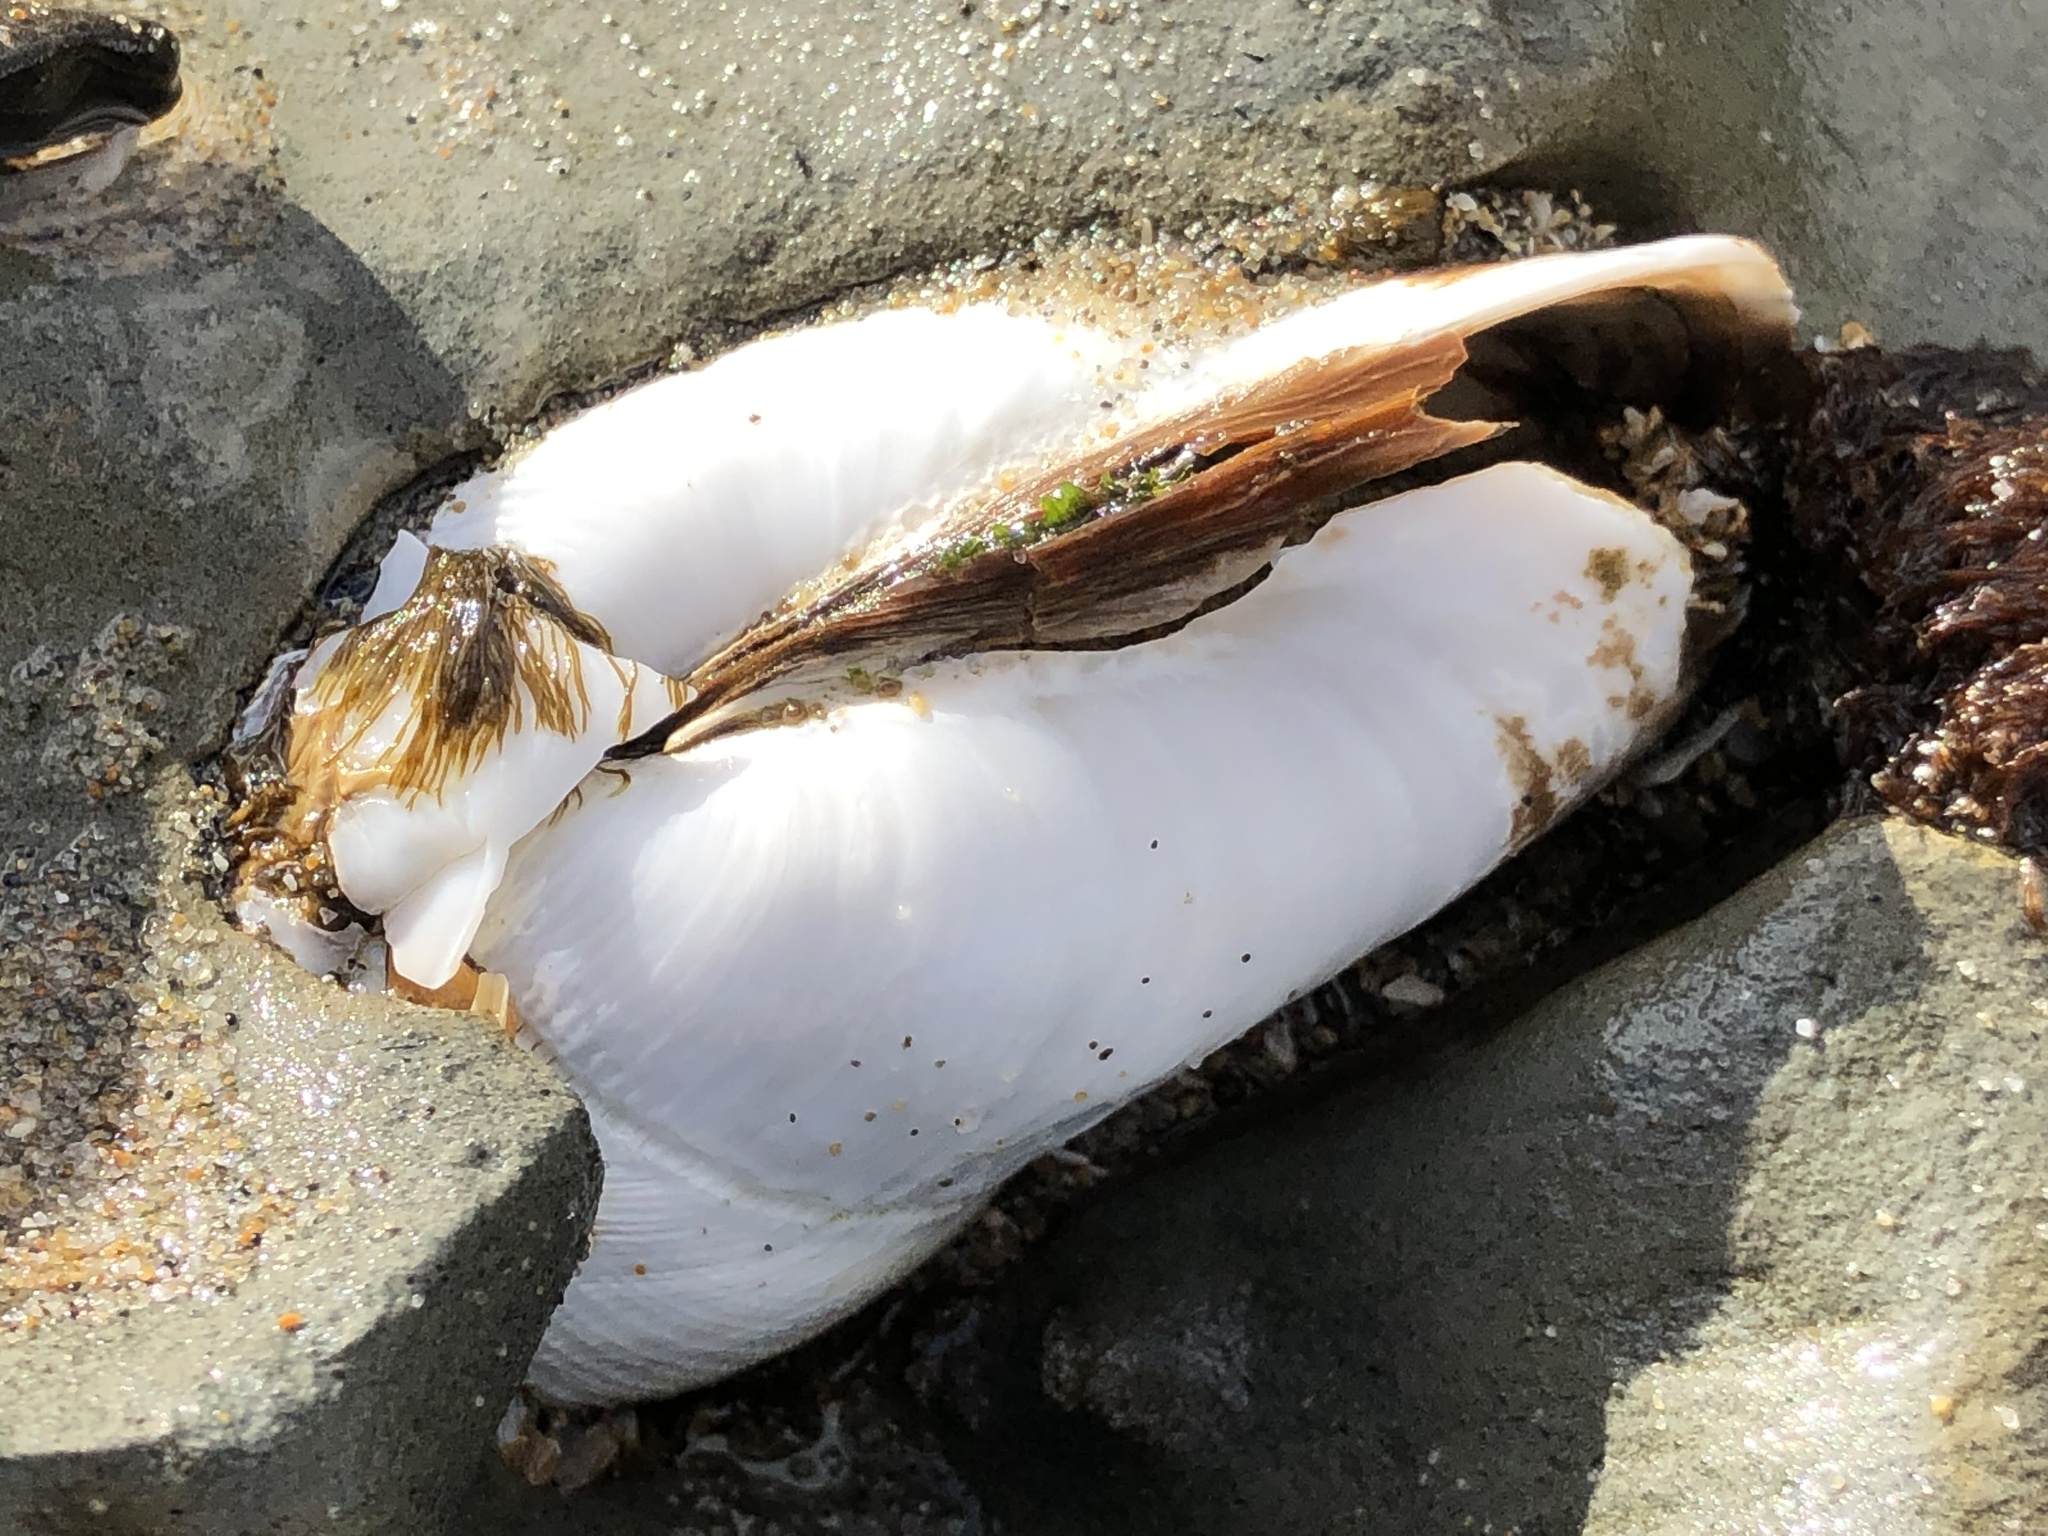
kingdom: Animalia
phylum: Mollusca
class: Bivalvia
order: Myida
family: Pholadidae
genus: Parapholas
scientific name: Parapholas californica
